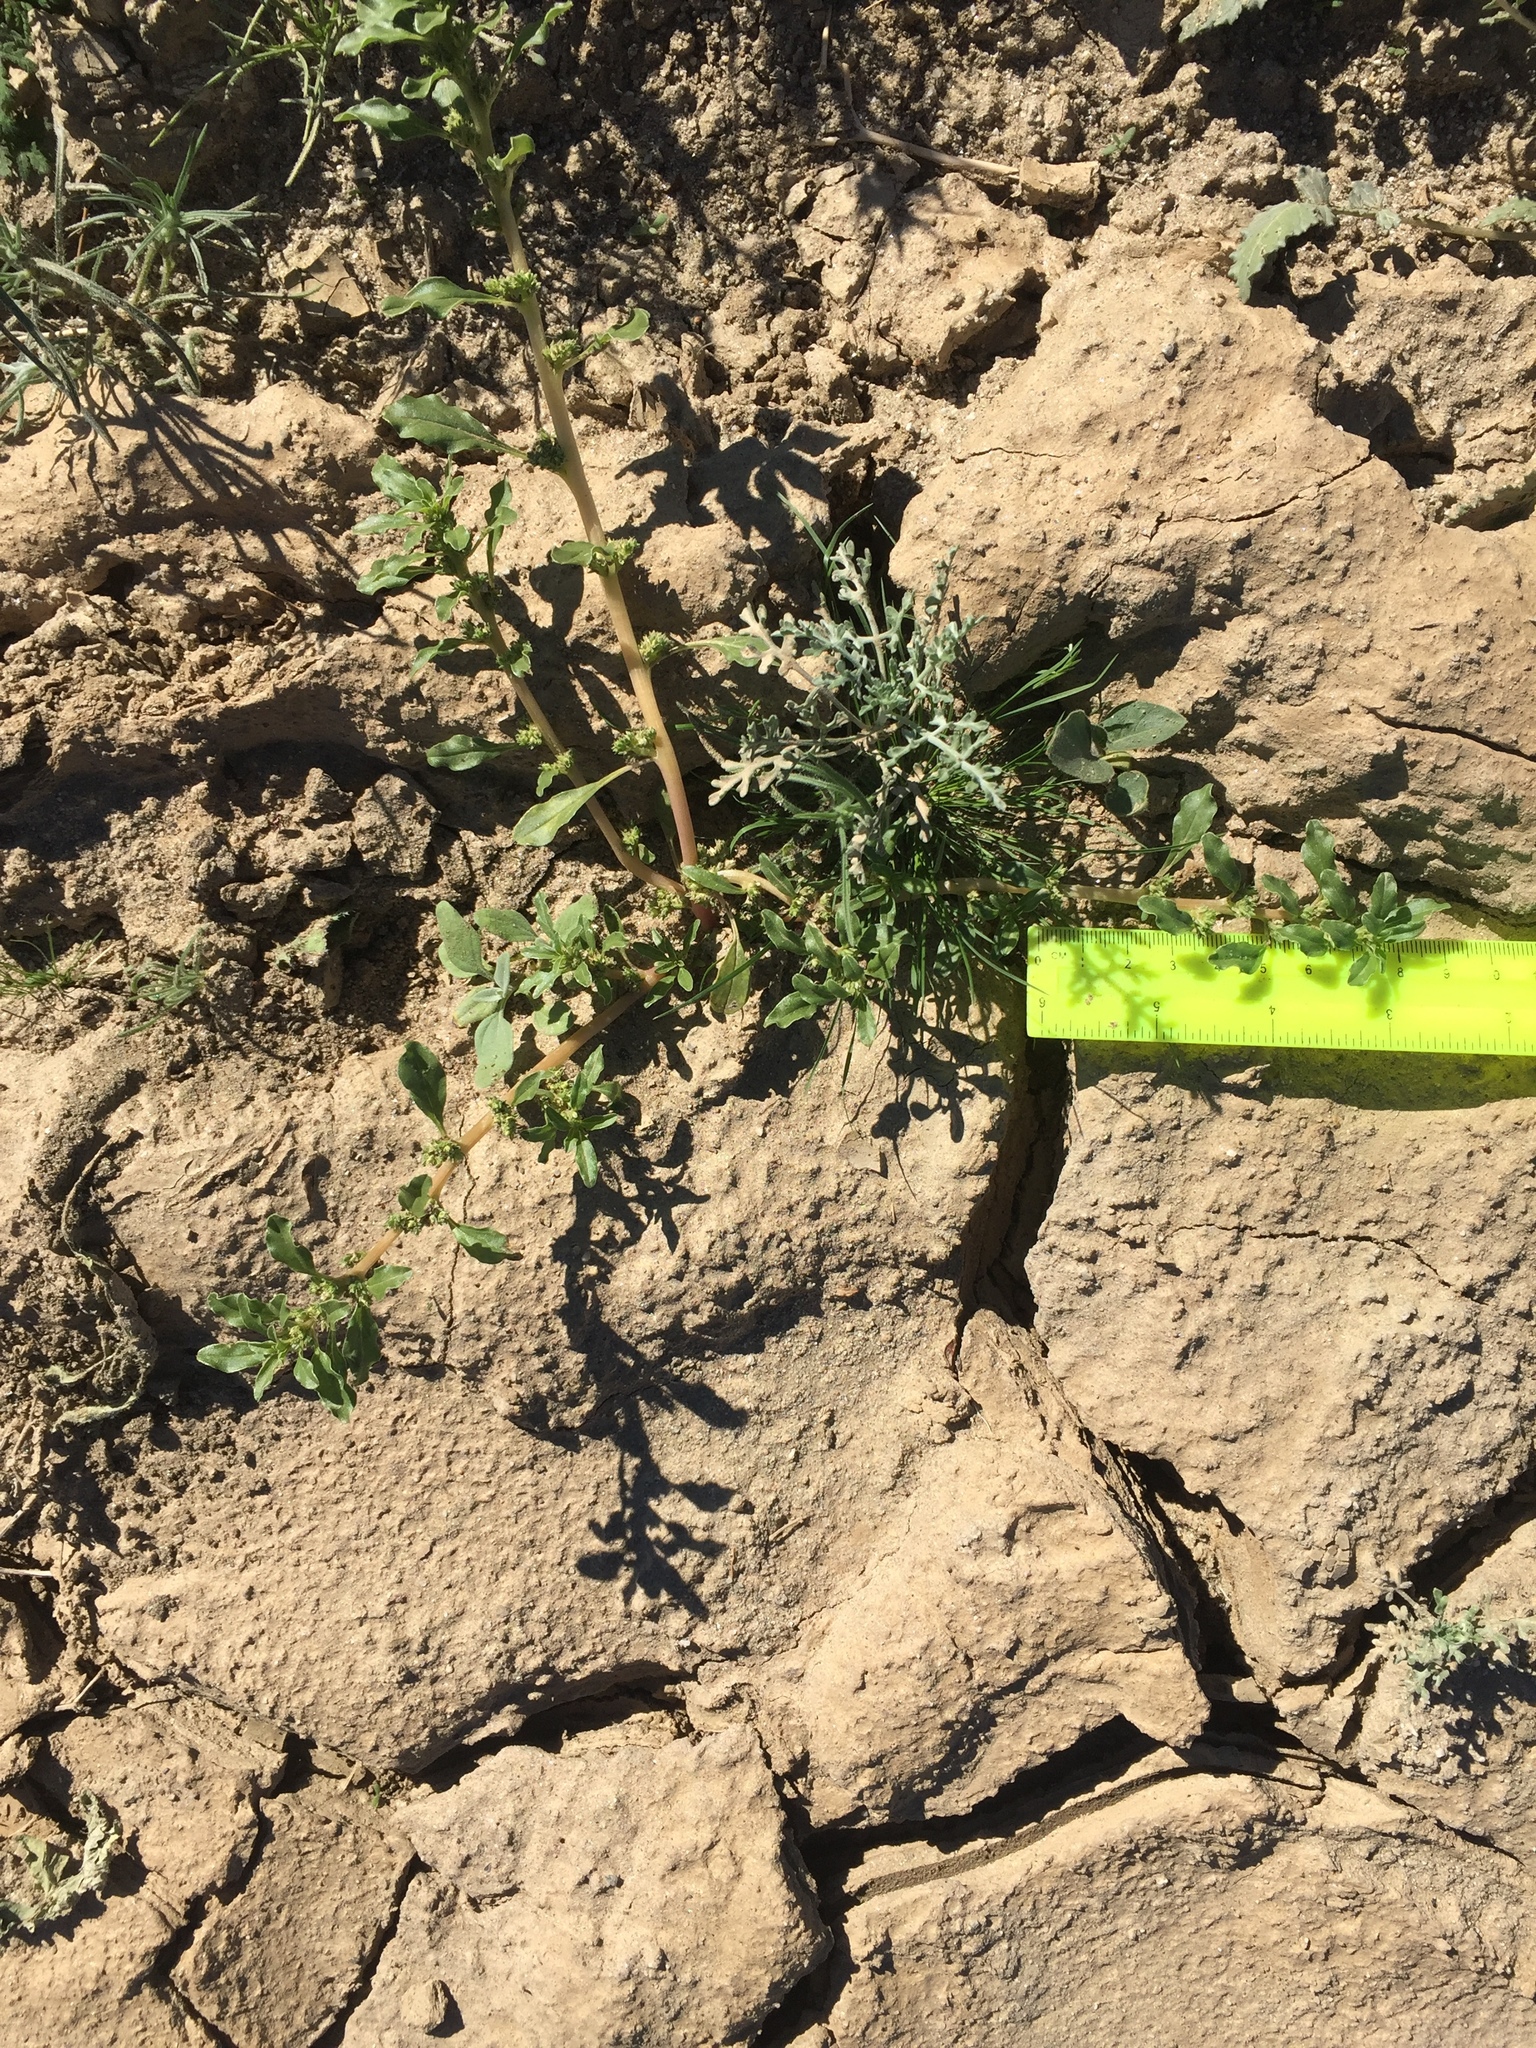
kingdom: Plantae
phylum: Tracheophyta
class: Magnoliopsida
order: Caryophyllales
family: Amaranthaceae
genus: Amaranthus
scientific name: Amaranthus blitoides
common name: Prostrate pigweed
